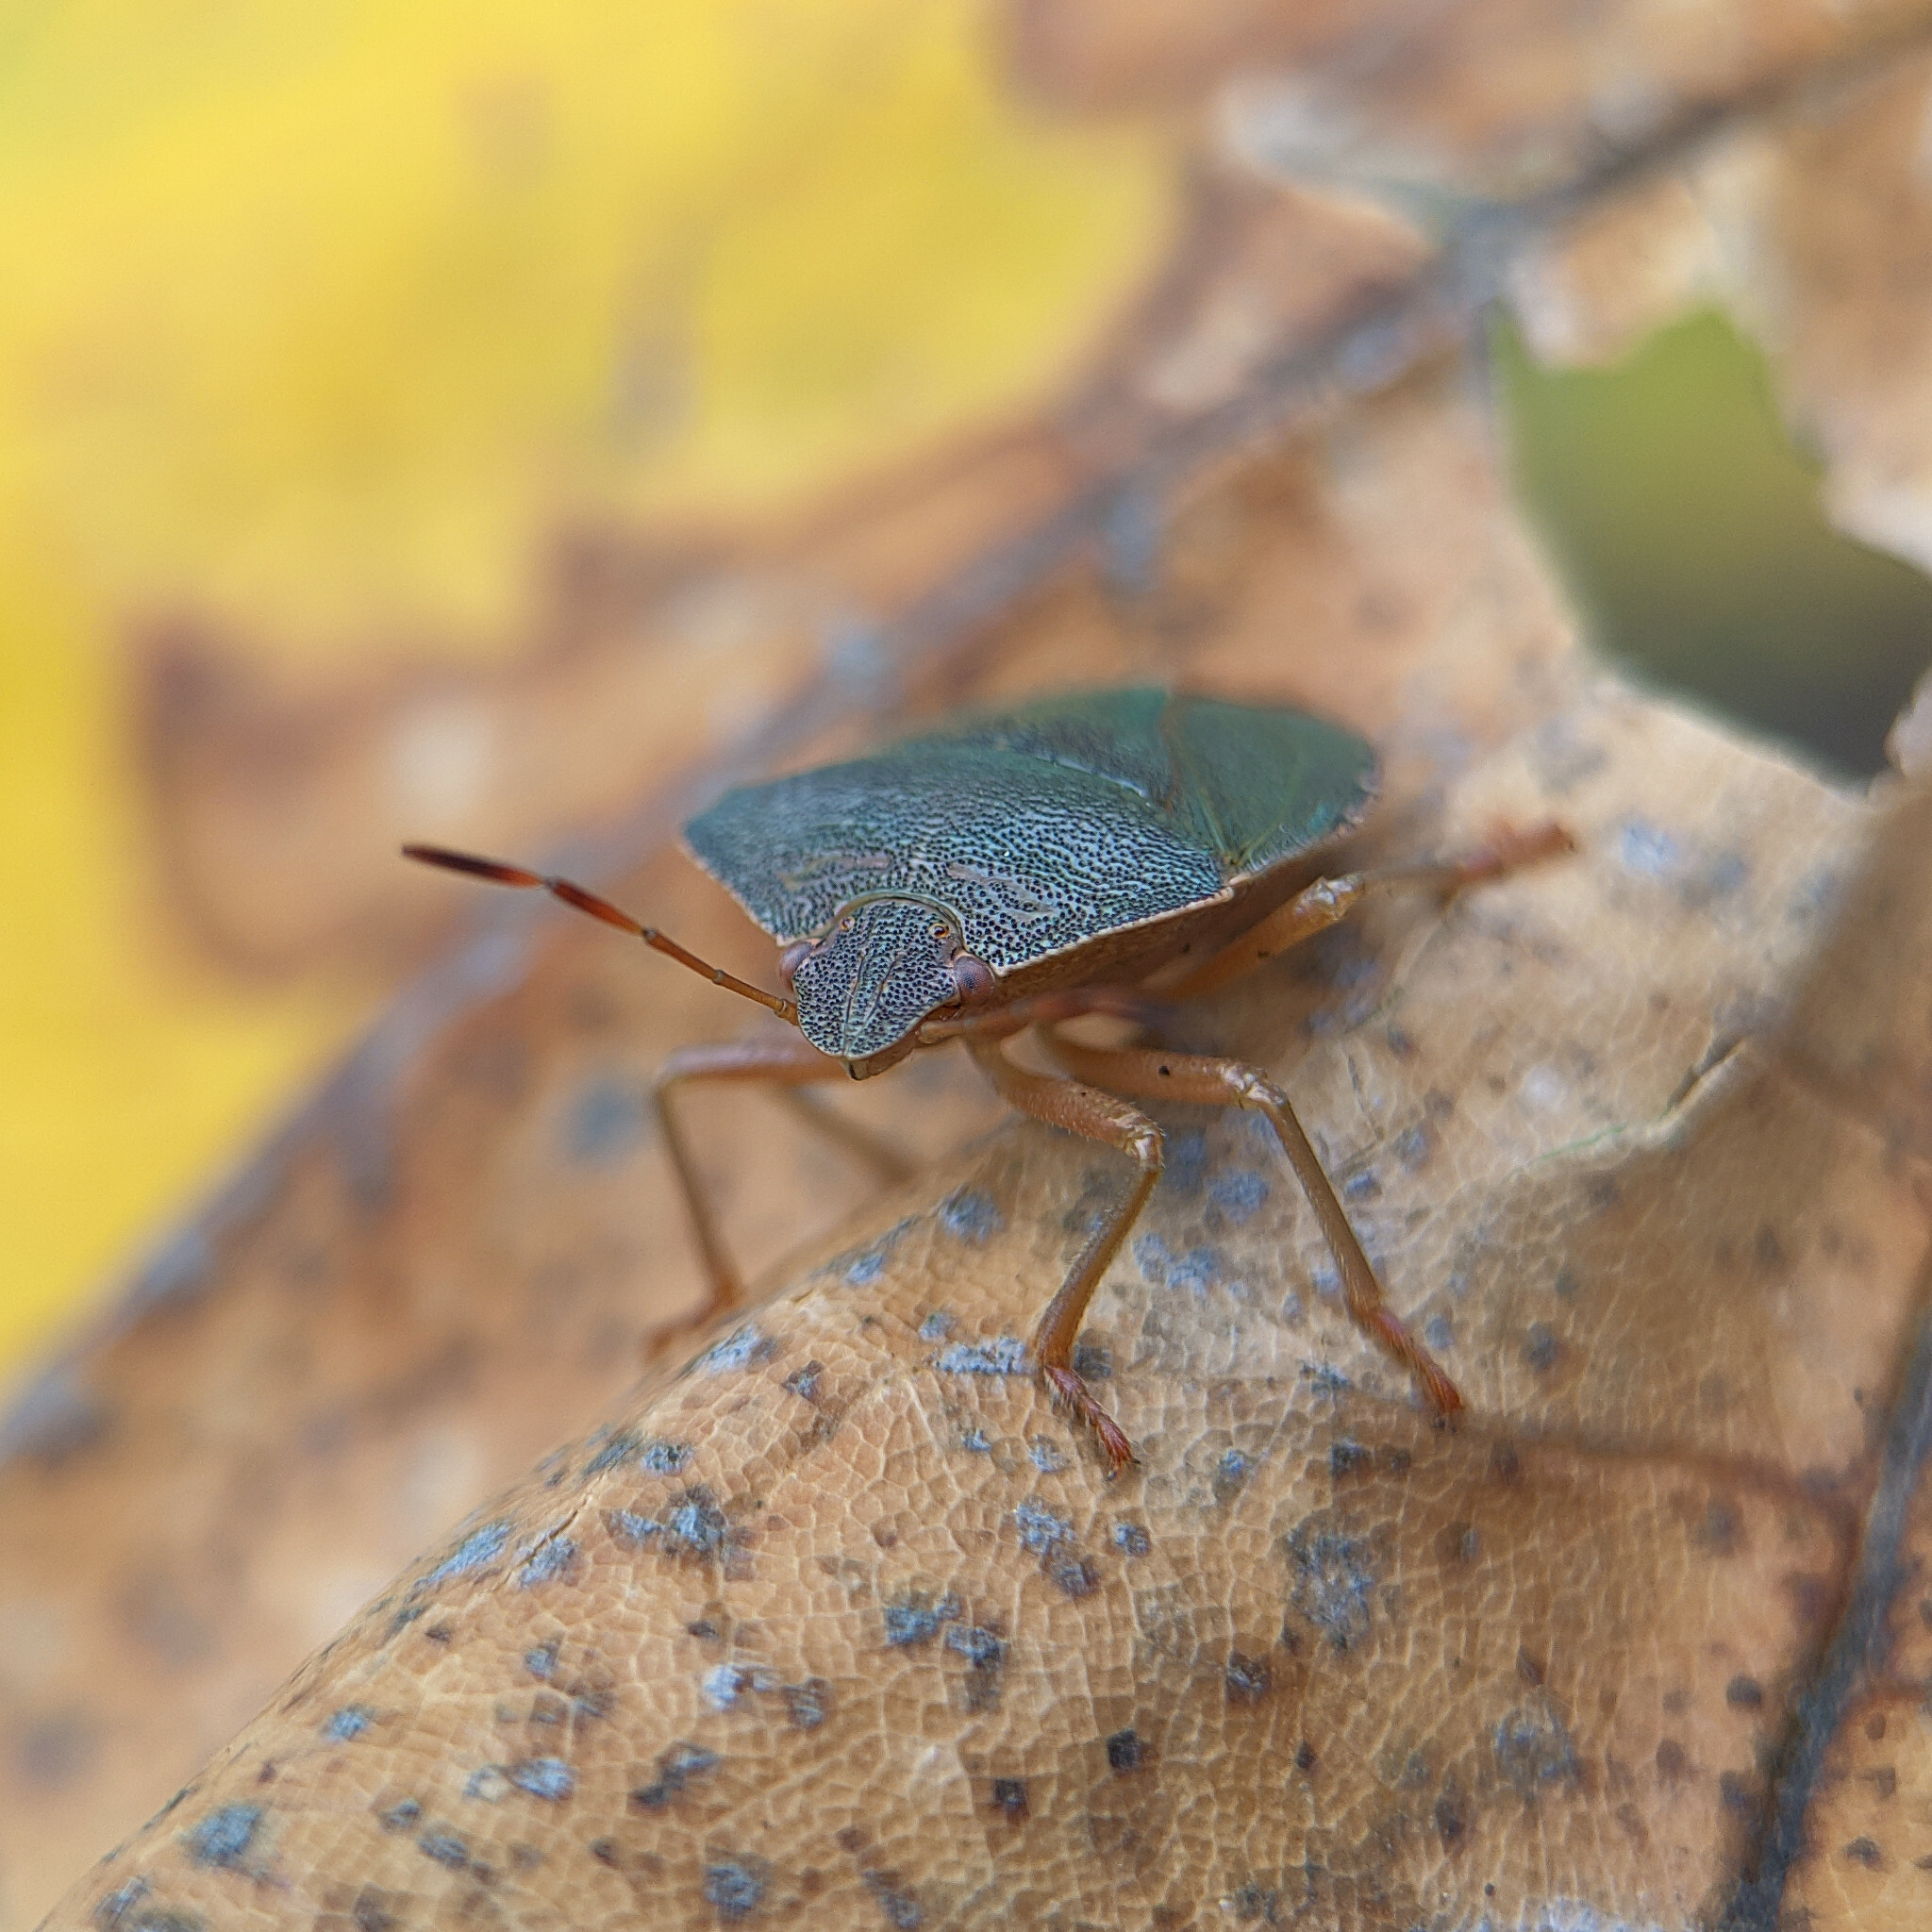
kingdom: Animalia
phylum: Arthropoda
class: Insecta
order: Hemiptera
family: Pentatomidae
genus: Palomena
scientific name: Palomena prasina
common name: Green shieldbug
